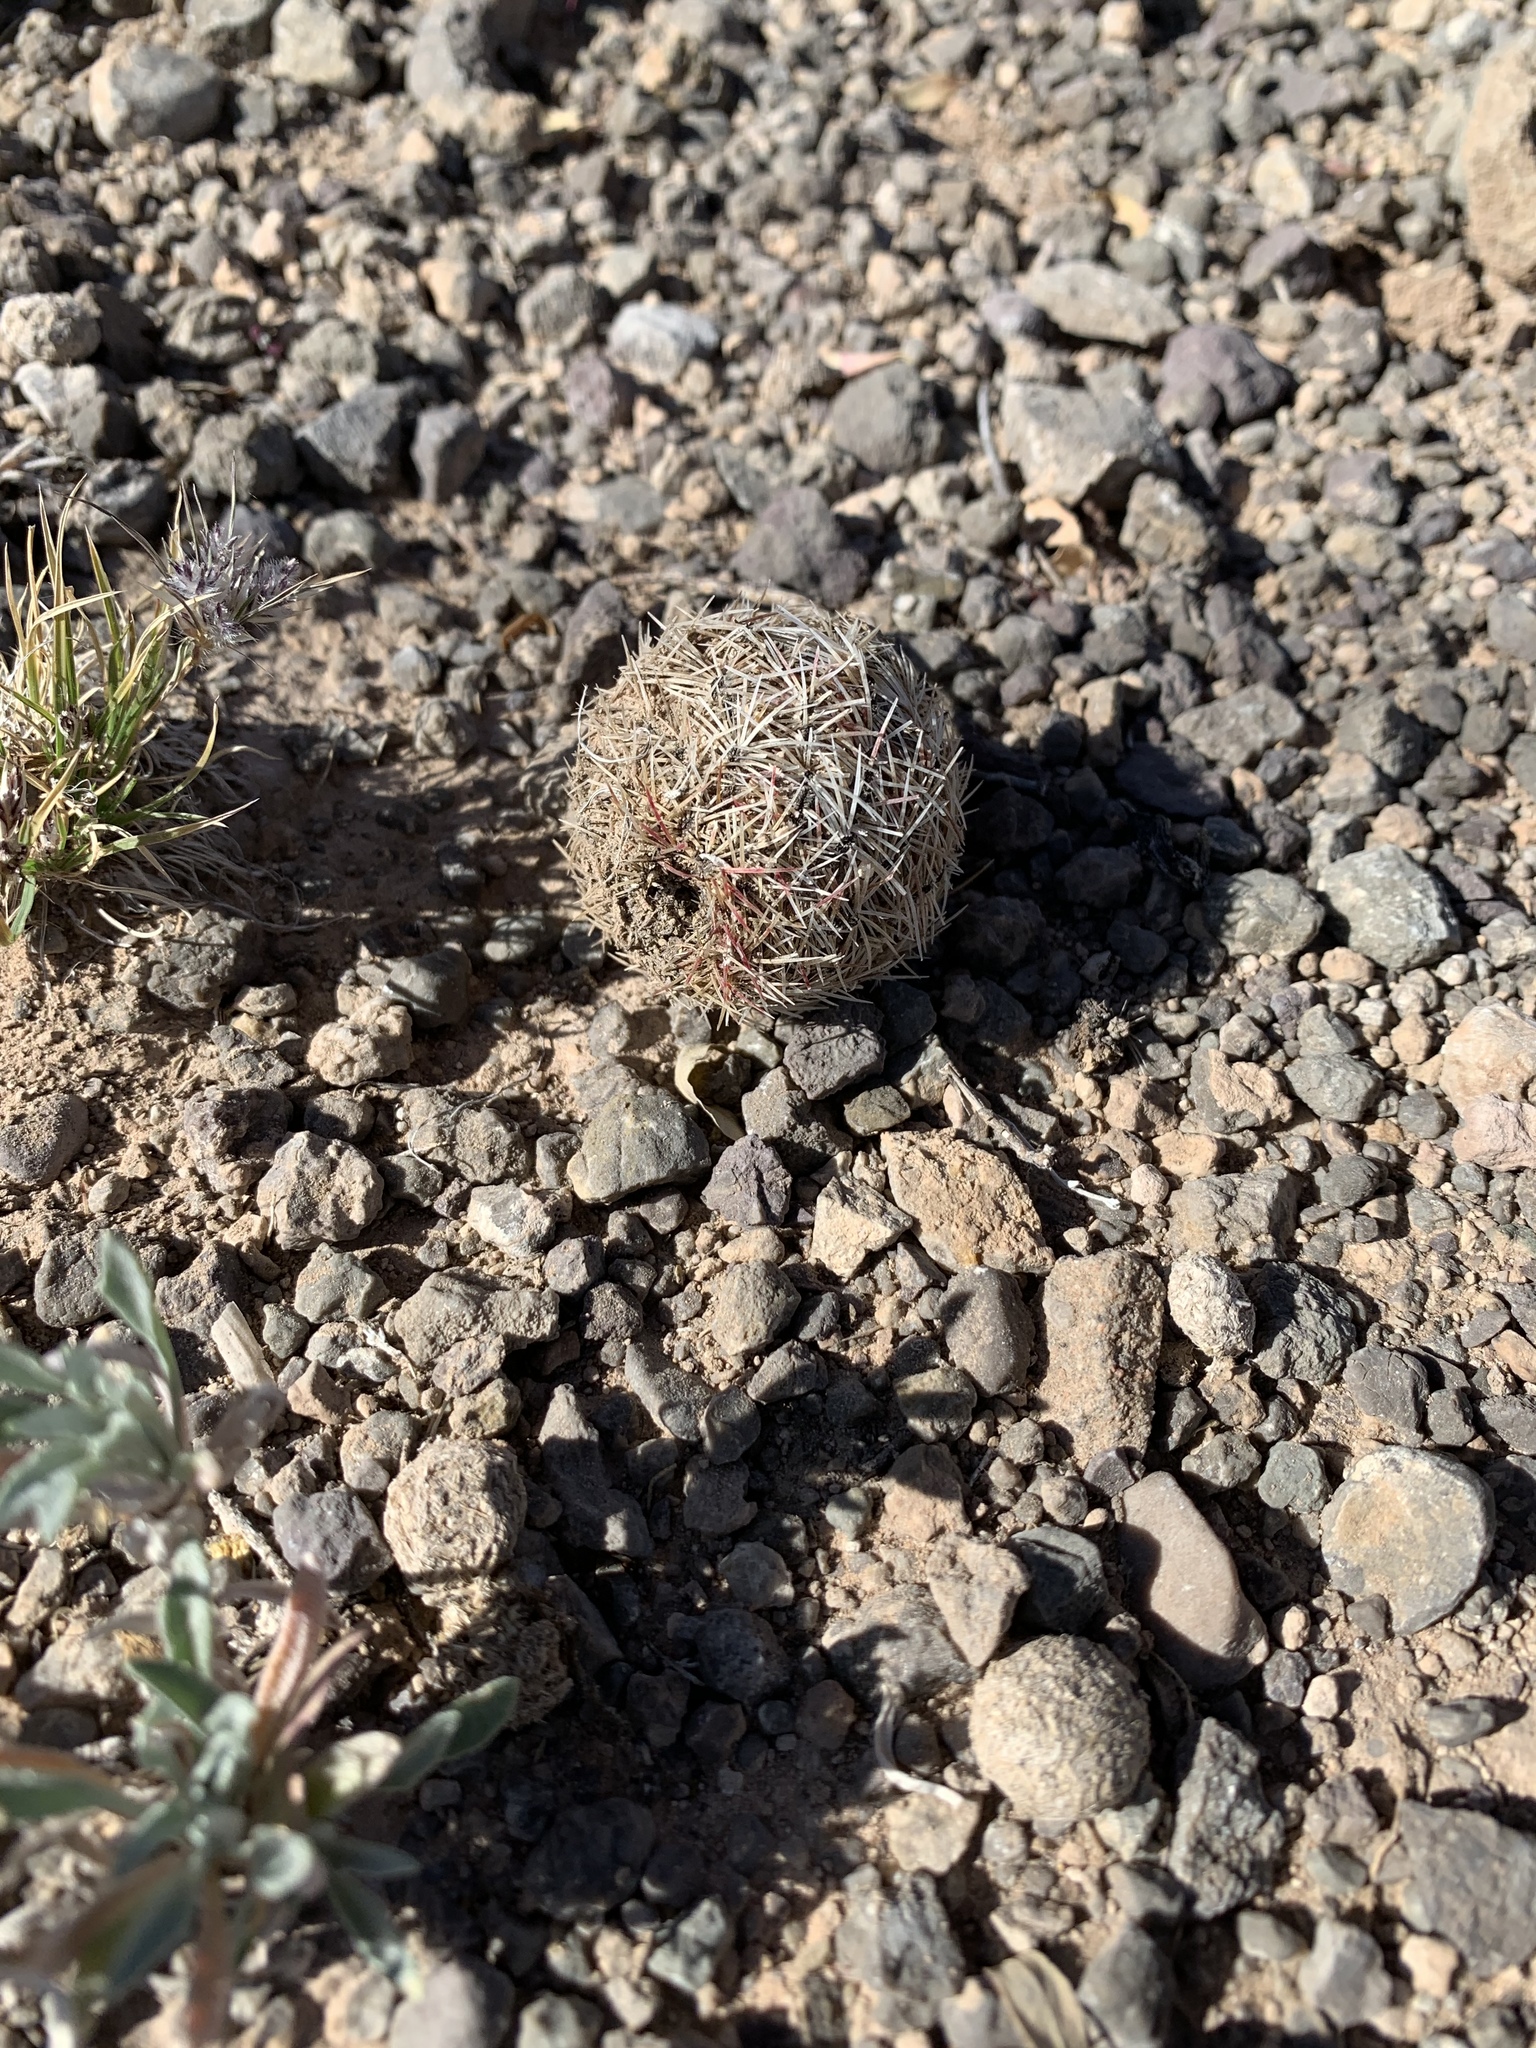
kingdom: Plantae
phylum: Tracheophyta
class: Magnoliopsida
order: Caryophyllales
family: Cactaceae
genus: Echinocereus
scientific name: Echinocereus viridiflorus
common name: Nylon hedgehog cactus
